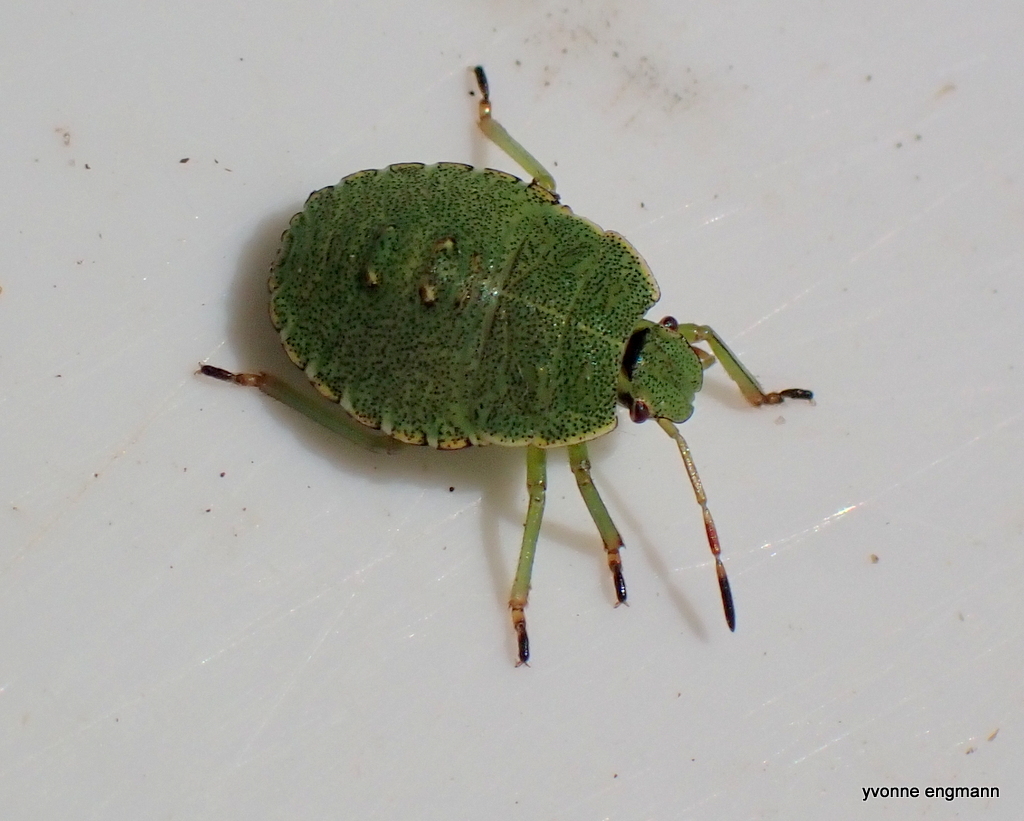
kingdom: Animalia
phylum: Arthropoda
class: Insecta
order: Hemiptera
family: Pentatomidae
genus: Palomena
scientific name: Palomena prasina
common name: Green shieldbug
